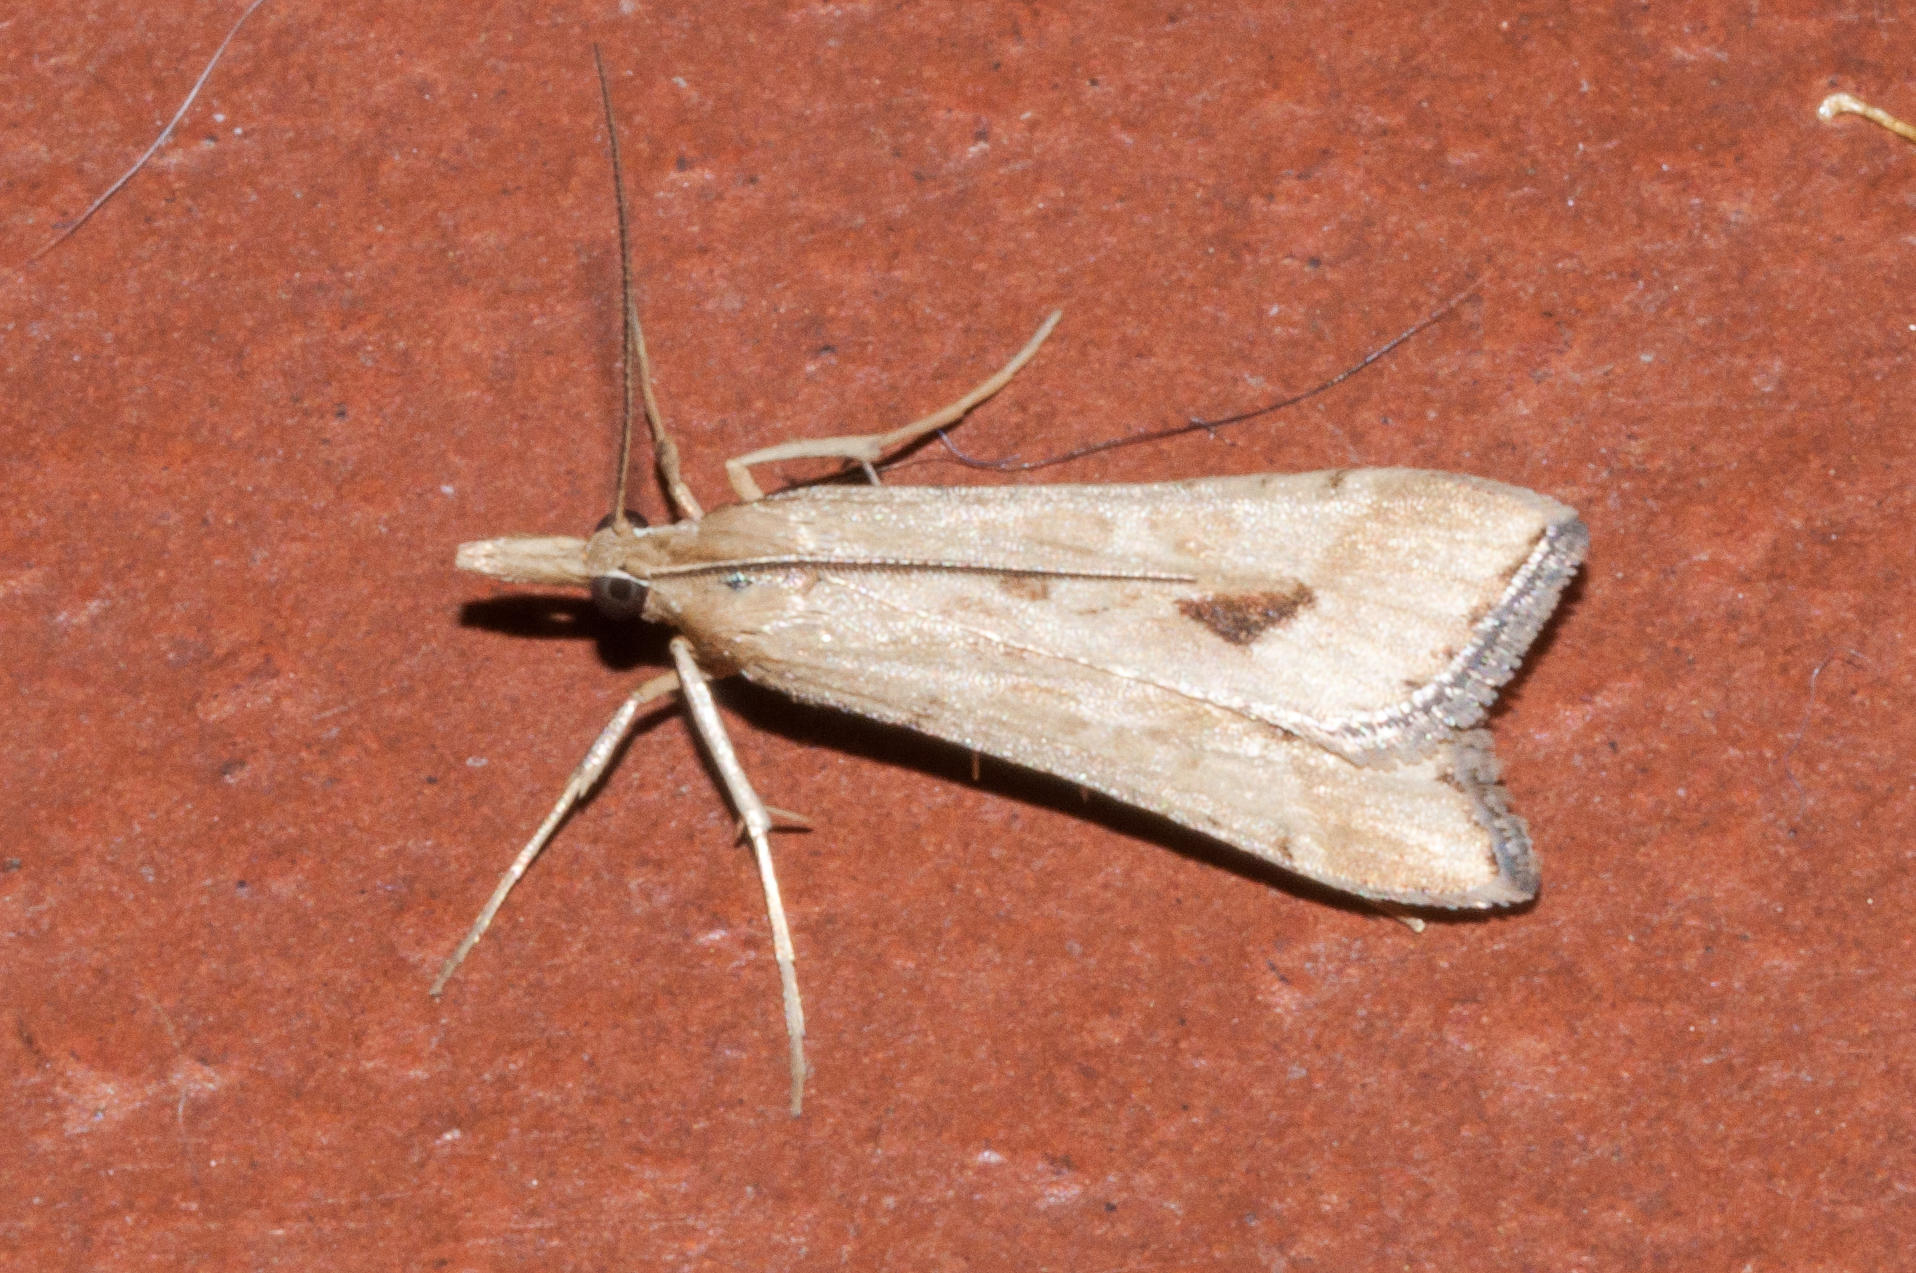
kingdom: Animalia
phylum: Arthropoda
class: Insecta
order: Lepidoptera
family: Crambidae
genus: Diasemia
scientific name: Diasemia monostigma
